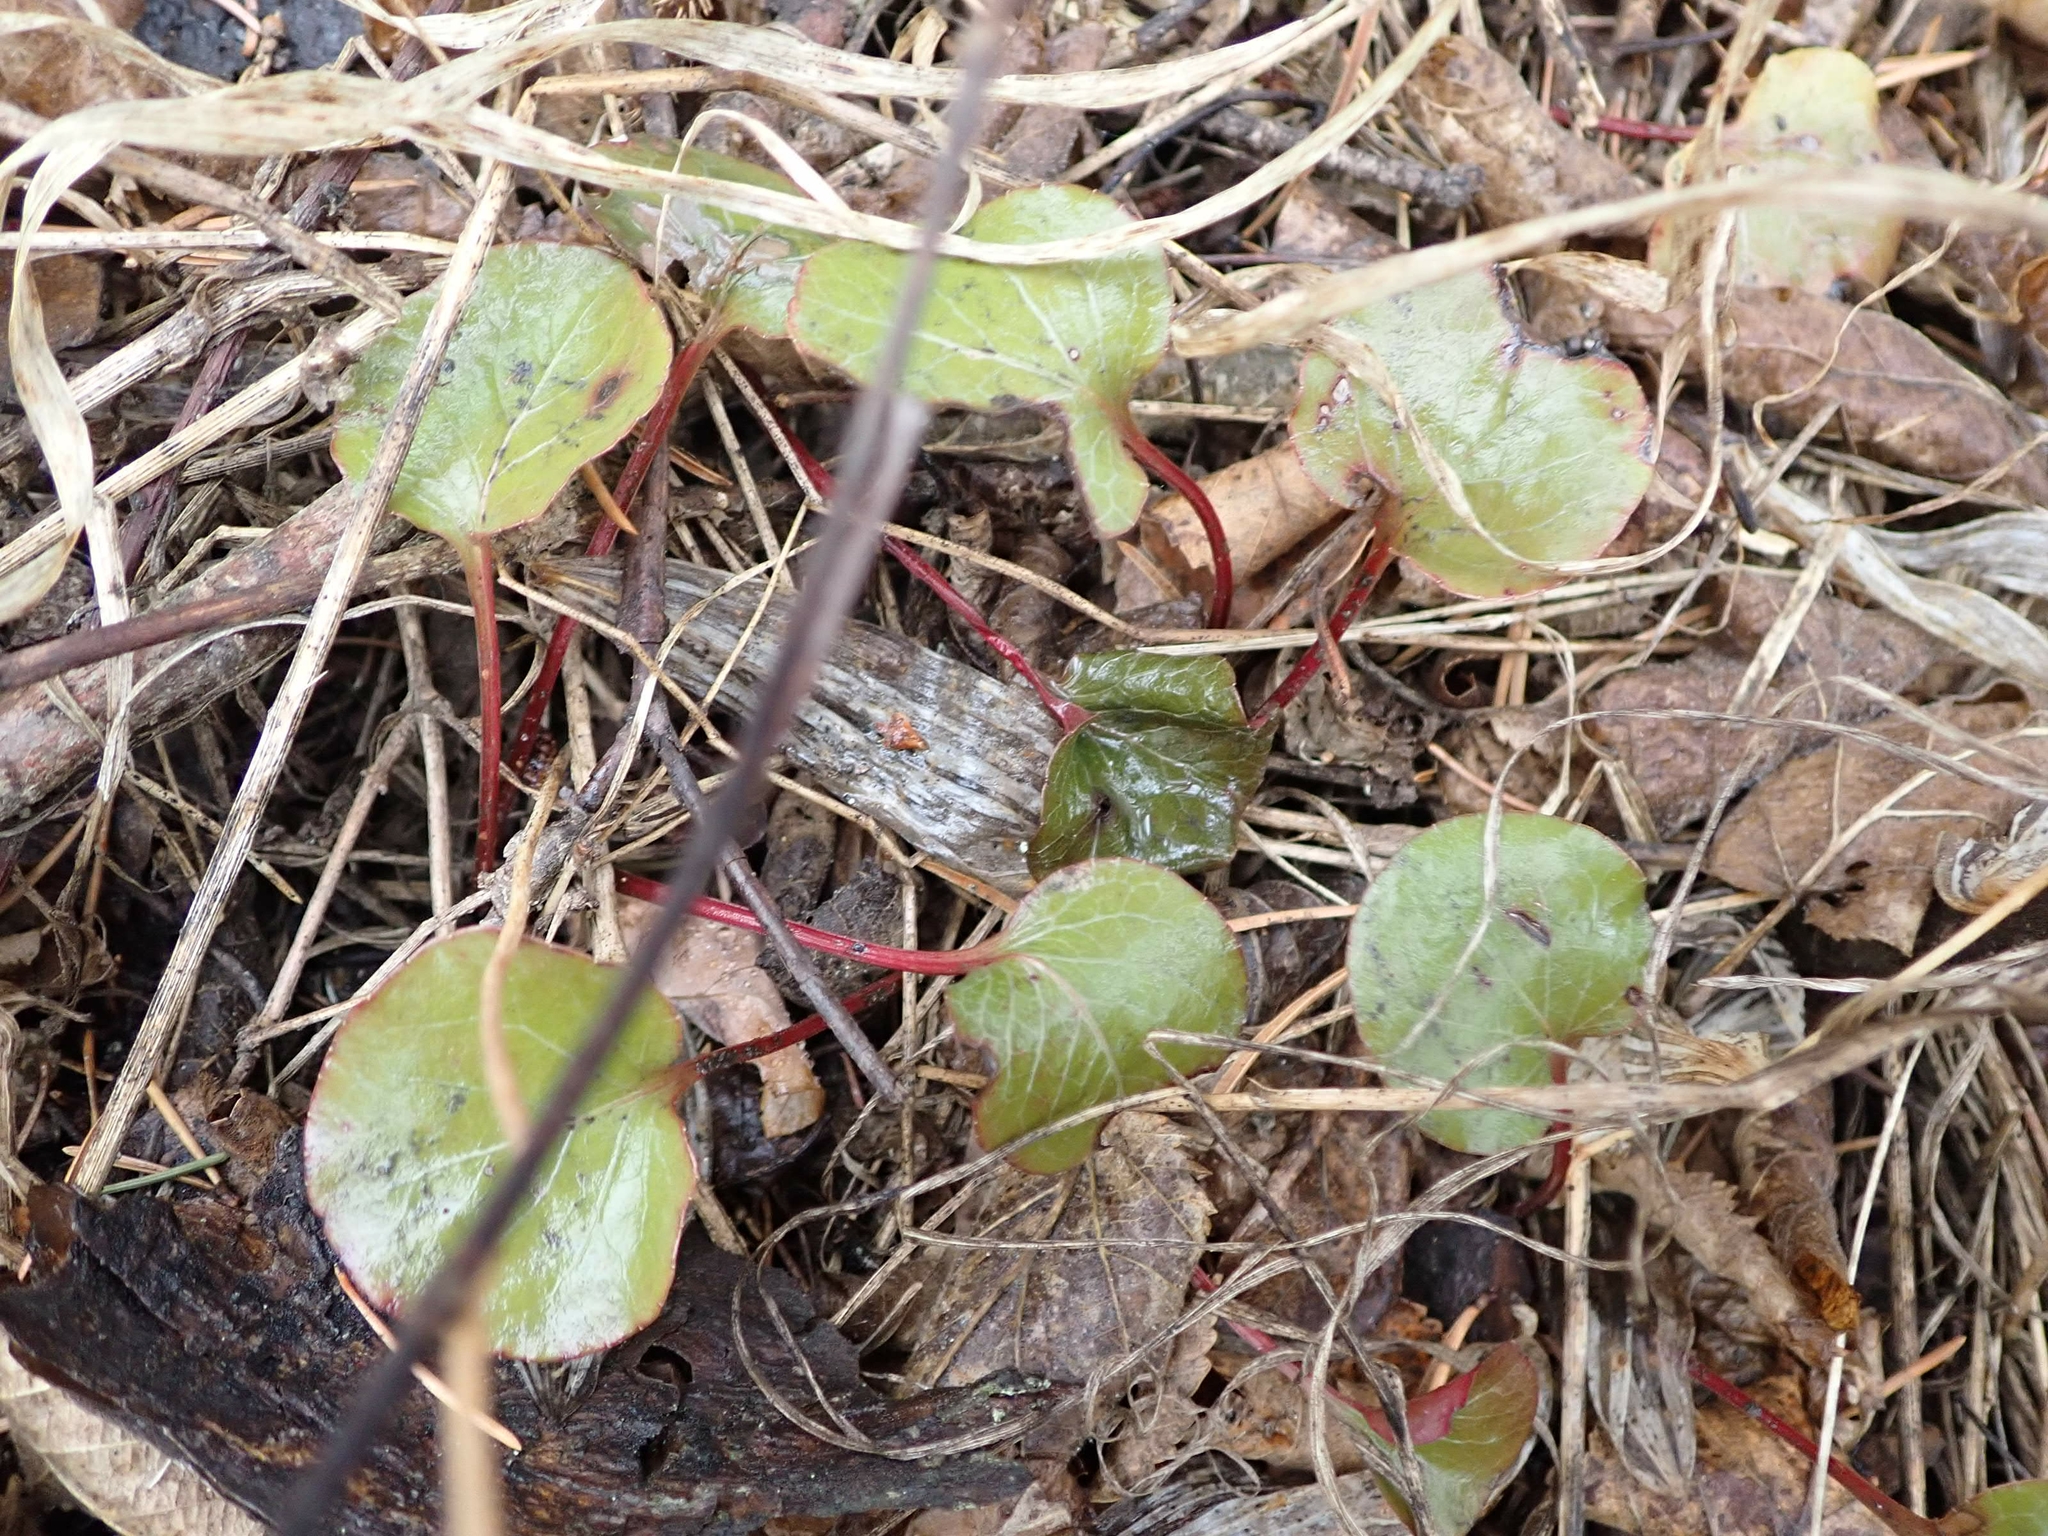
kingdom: Plantae
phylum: Tracheophyta
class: Magnoliopsida
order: Ericales
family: Ericaceae
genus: Pyrola
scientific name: Pyrola asarifolia
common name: Bog wintergreen
